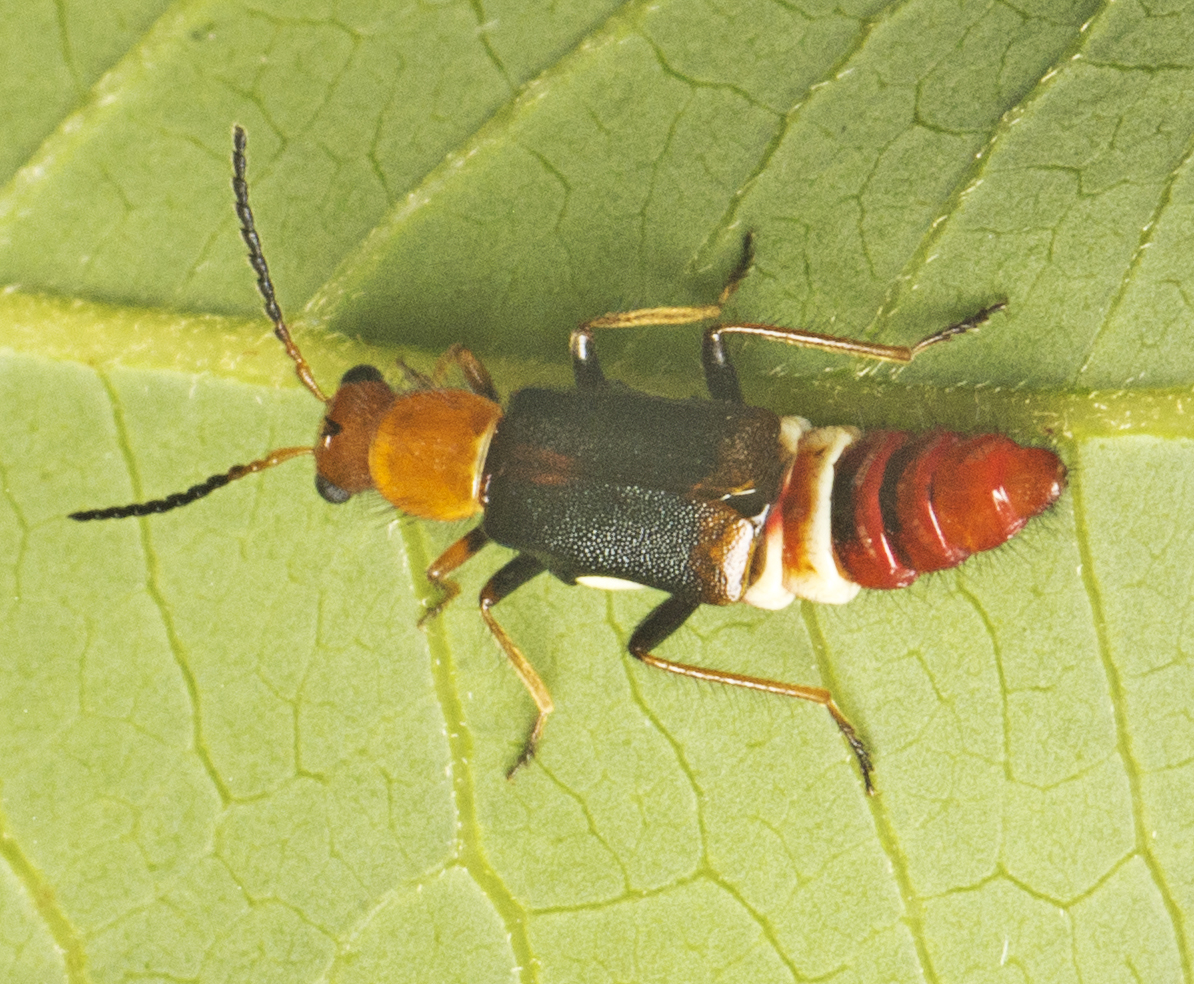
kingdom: Animalia
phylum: Arthropoda
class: Insecta
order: Coleoptera
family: Melyridae
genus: Carphurus
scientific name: Carphurus
